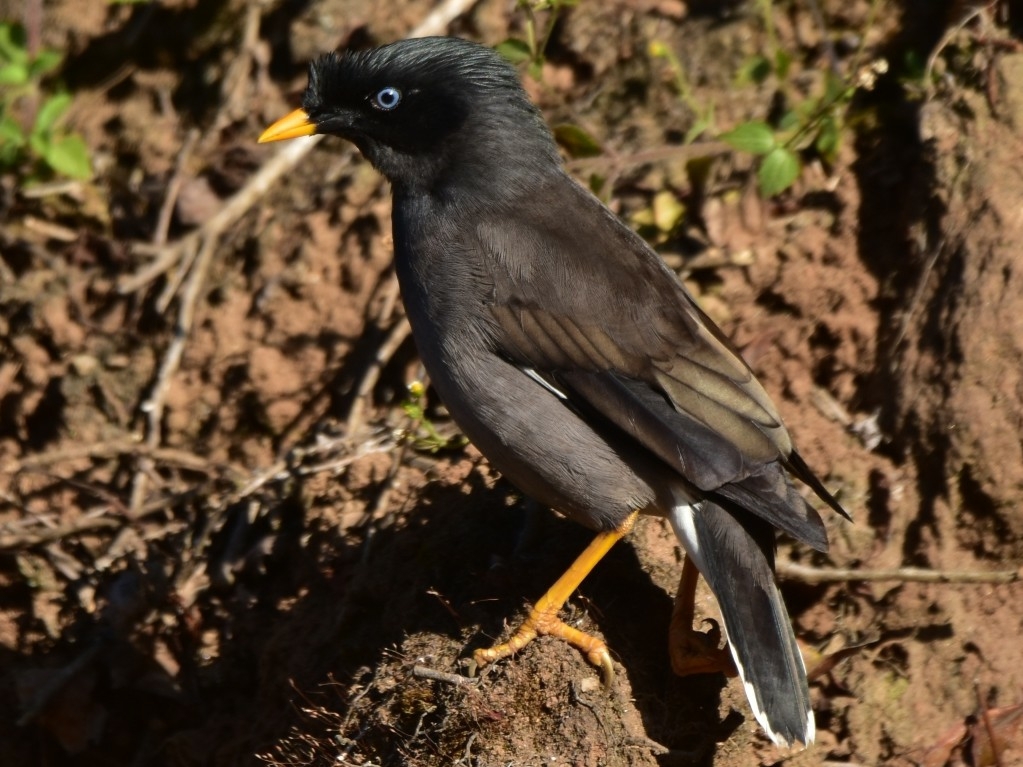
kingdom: Animalia
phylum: Chordata
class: Aves
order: Passeriformes
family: Sturnidae
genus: Acridotheres
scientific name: Acridotheres fuscus
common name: Jungle myna
